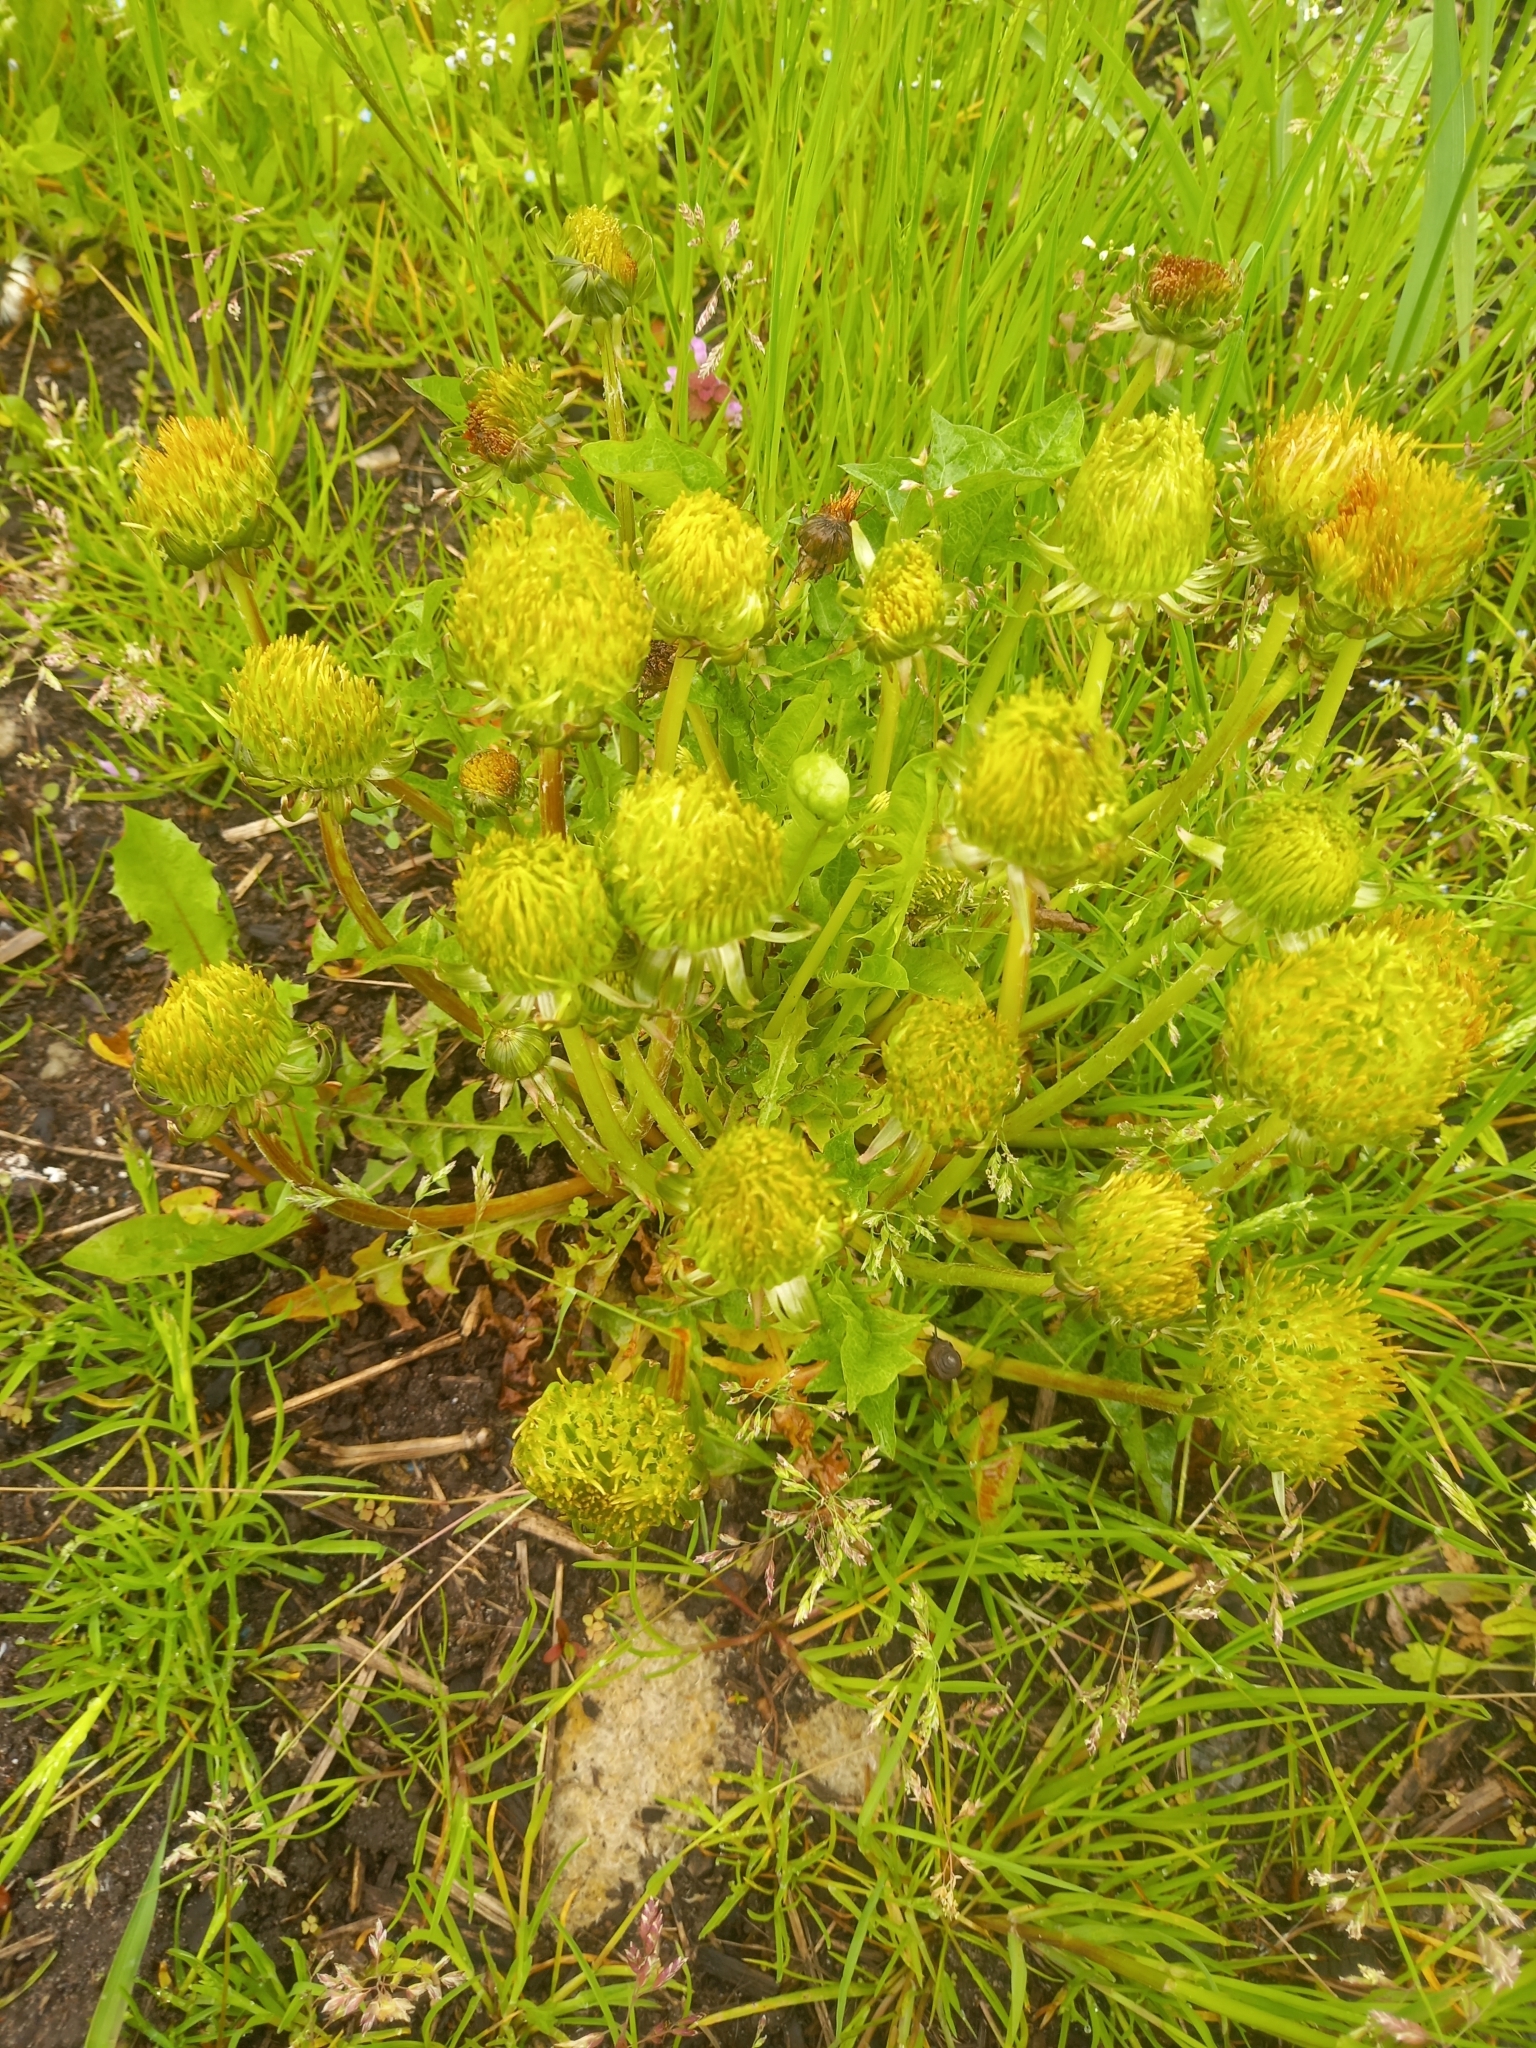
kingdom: Plantae
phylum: Tracheophyta
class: Magnoliopsida
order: Asterales
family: Asteraceae
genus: Taraxacum
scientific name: Taraxacum officinale
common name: Common dandelion
